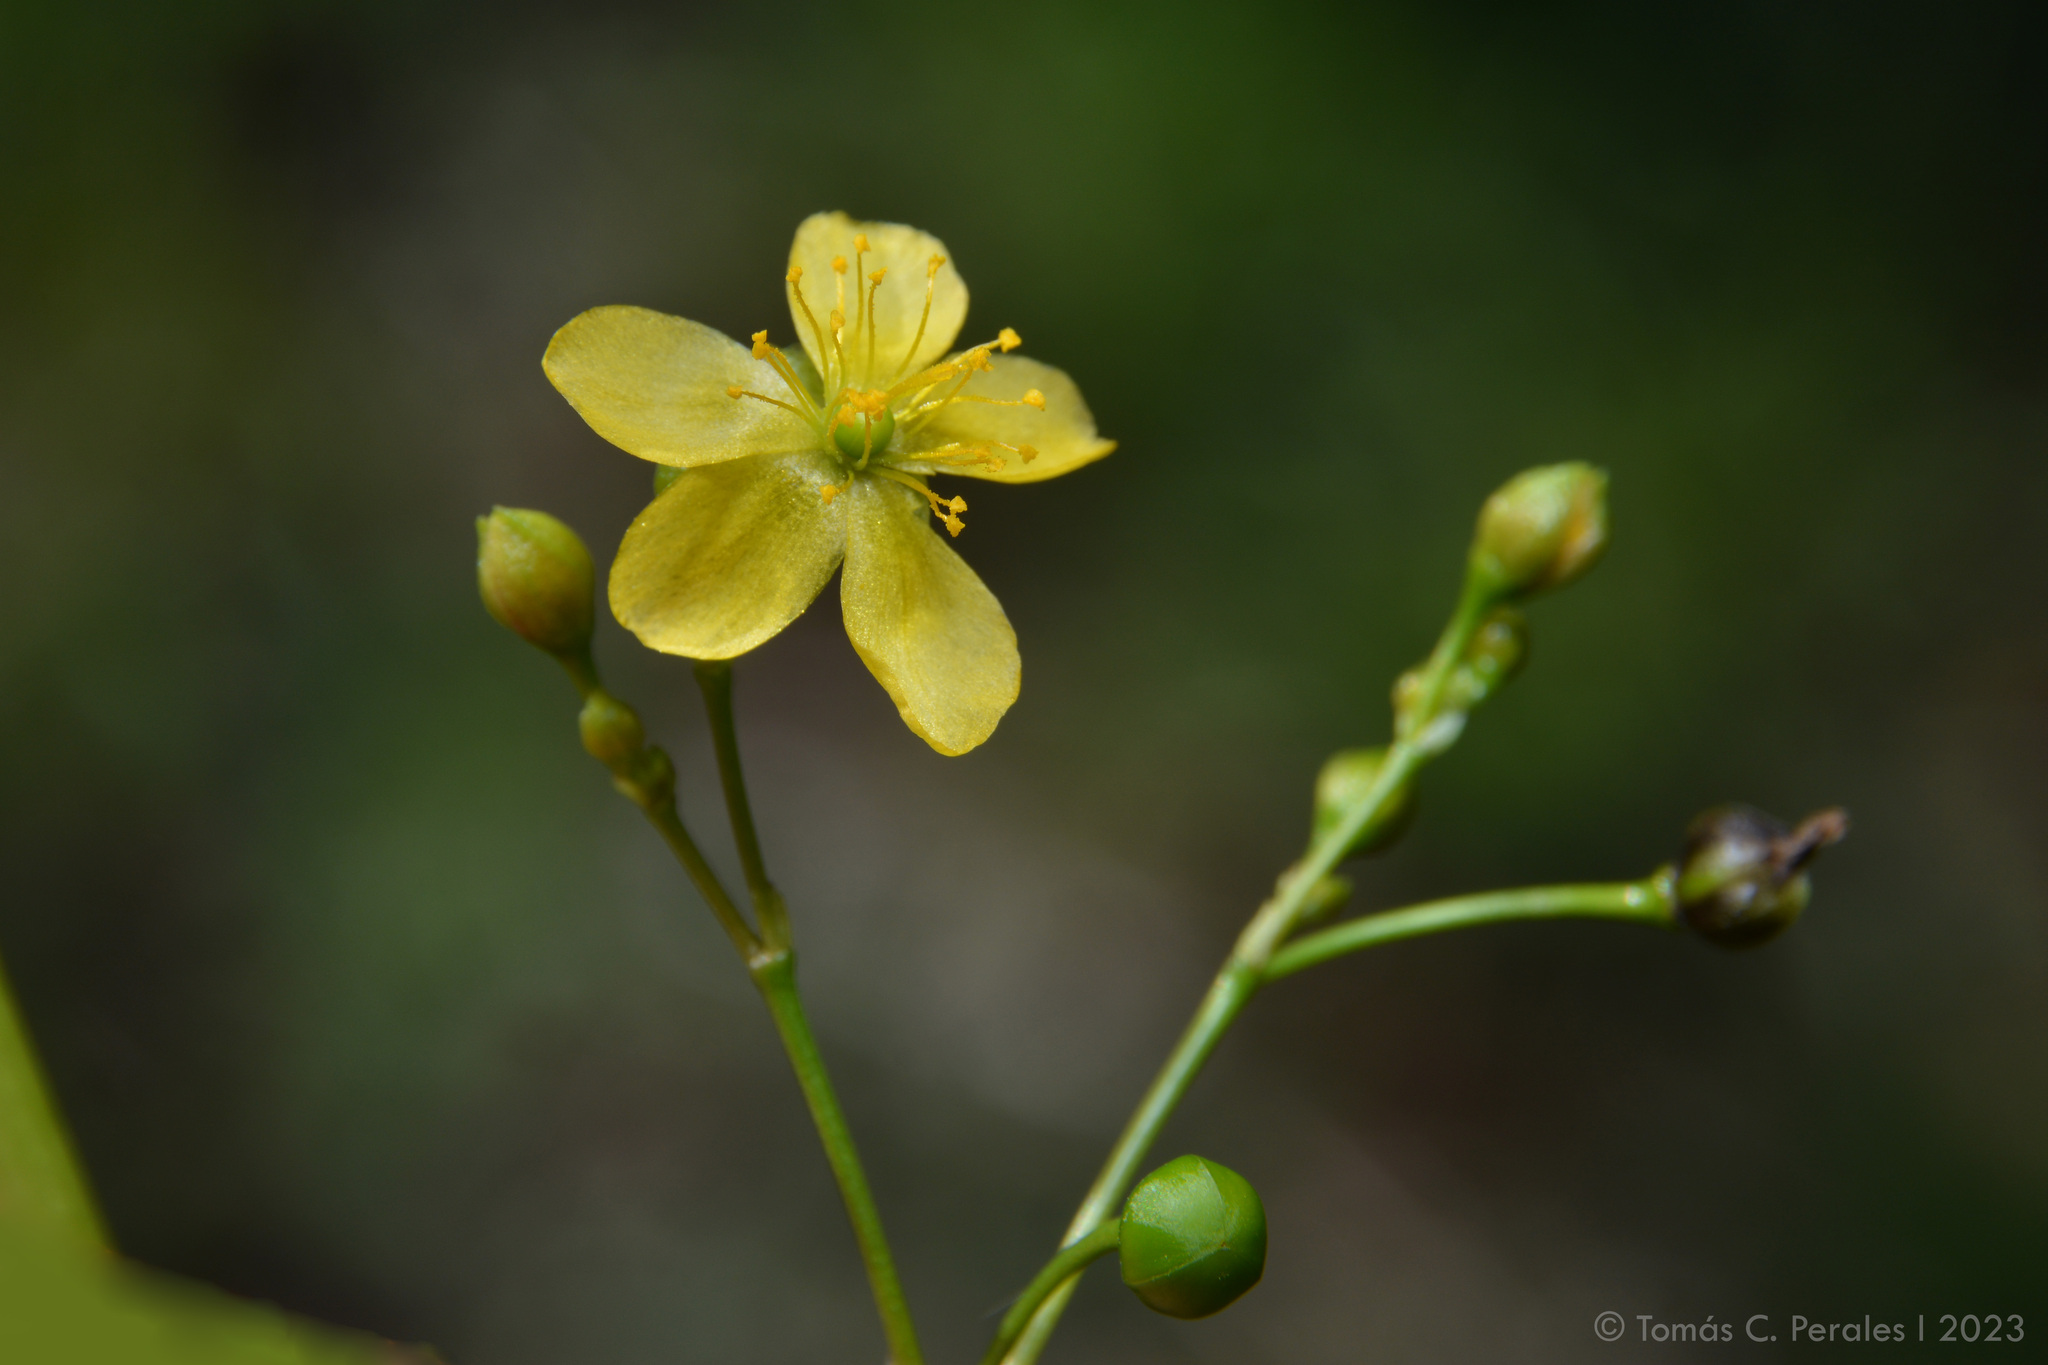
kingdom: Plantae
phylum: Tracheophyta
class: Magnoliopsida
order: Caryophyllales
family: Talinaceae
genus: Talinum
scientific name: Talinum paniculatum
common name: Jewels of opar
